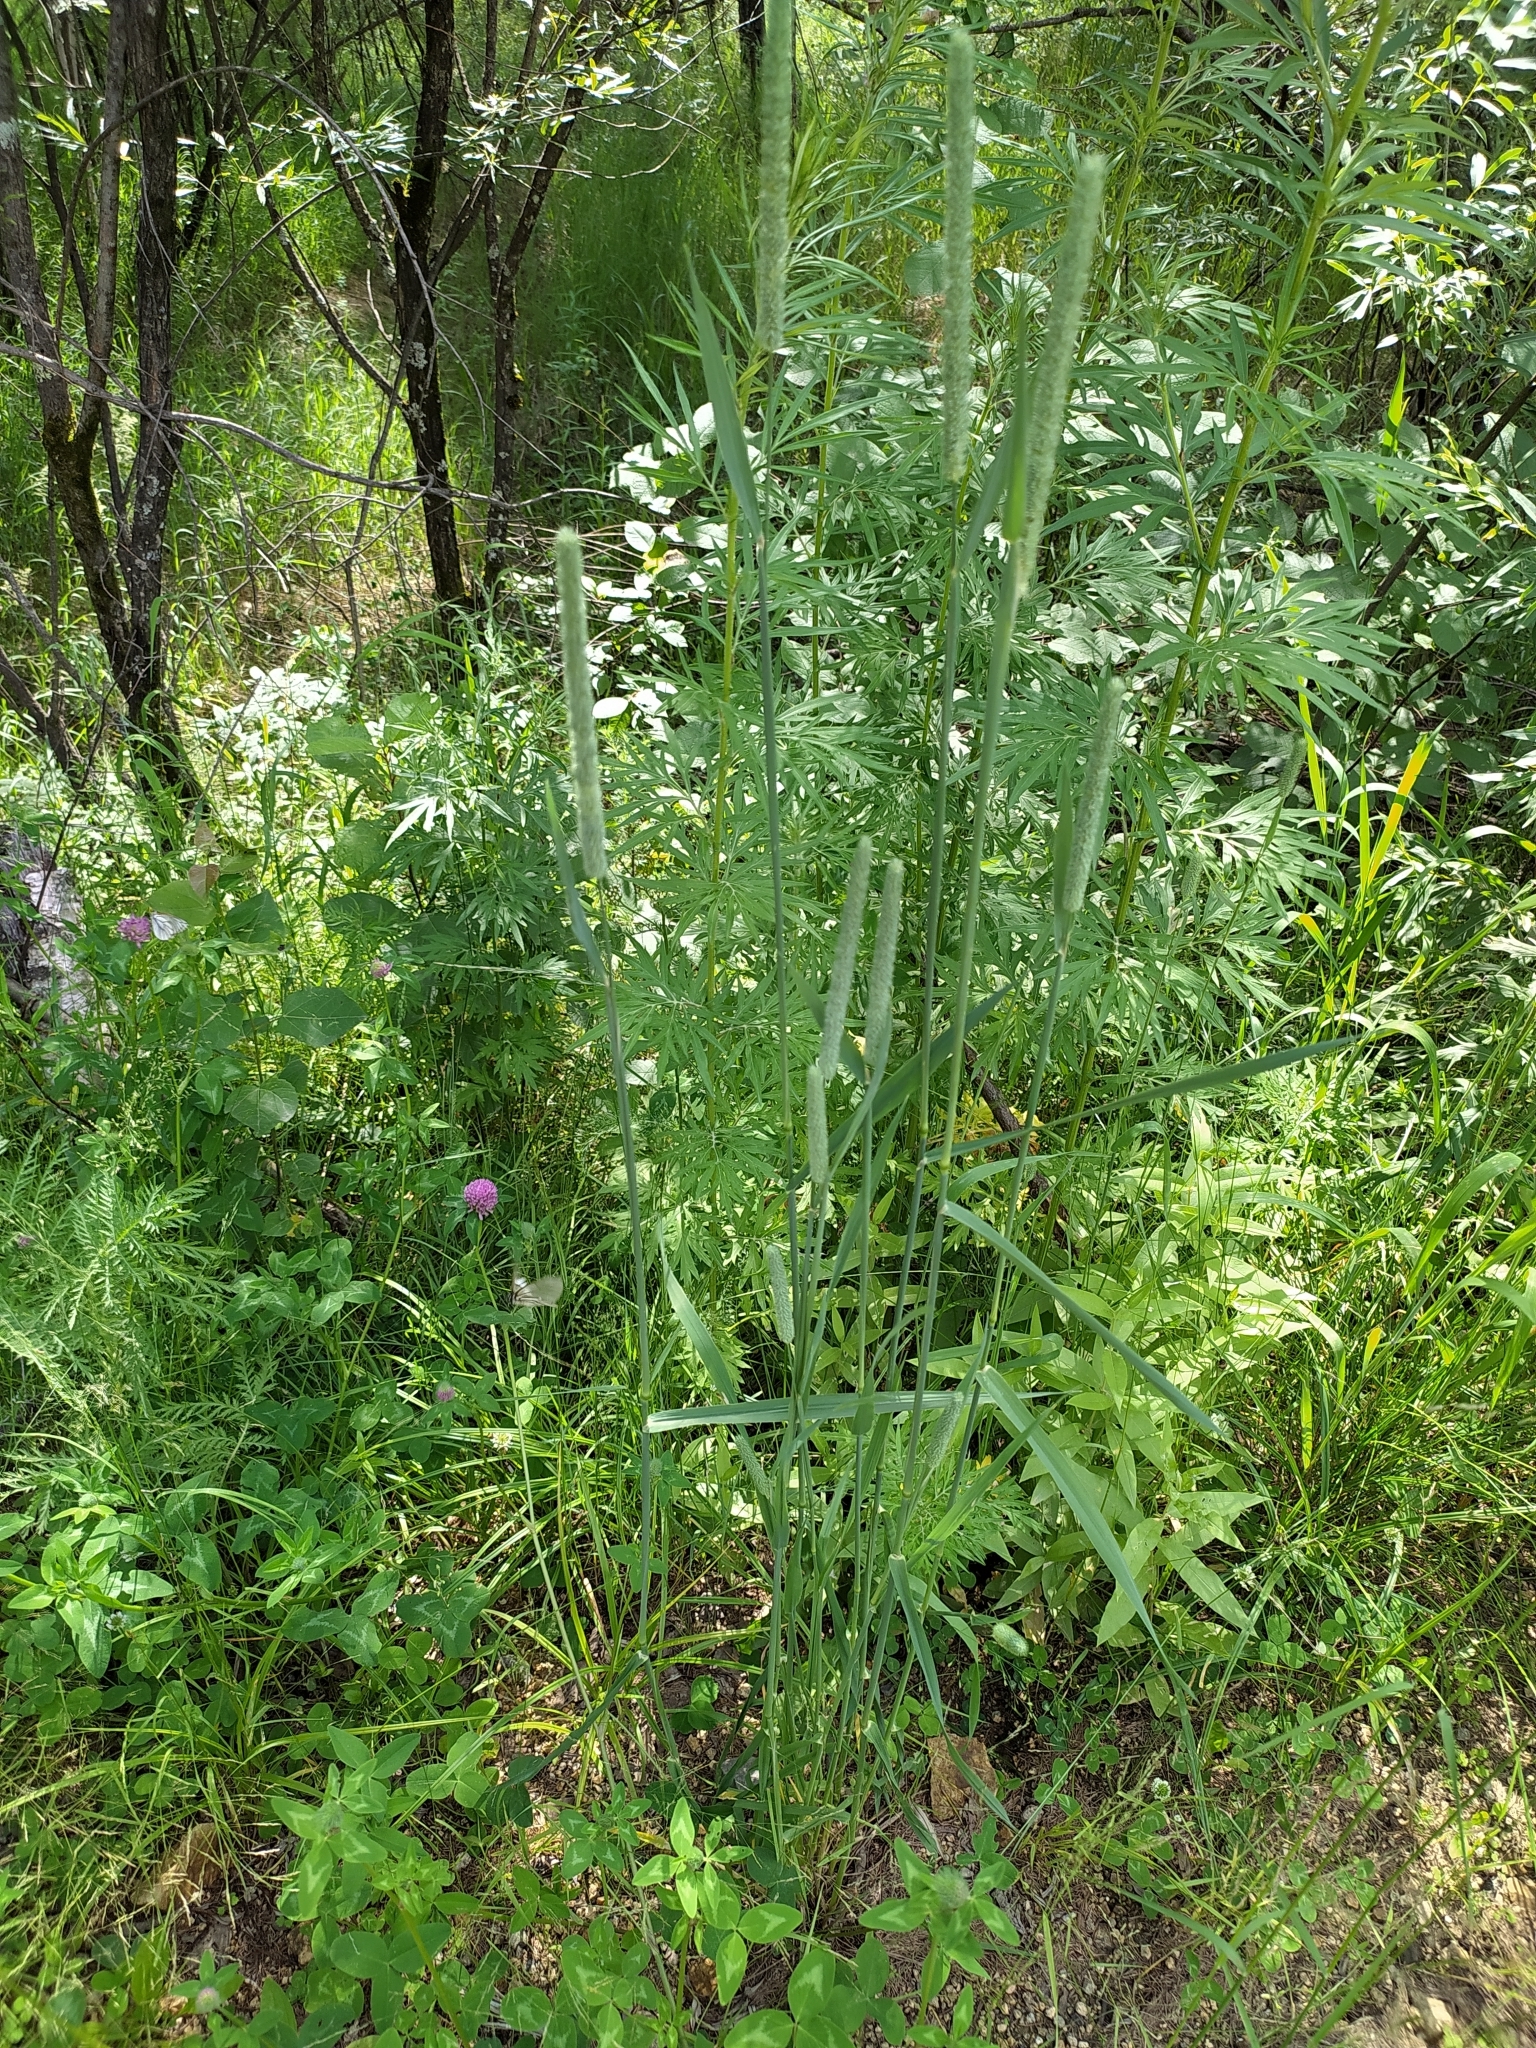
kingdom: Plantae
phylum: Tracheophyta
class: Liliopsida
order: Poales
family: Poaceae
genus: Phleum
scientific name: Phleum pratense
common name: Timothy grass
